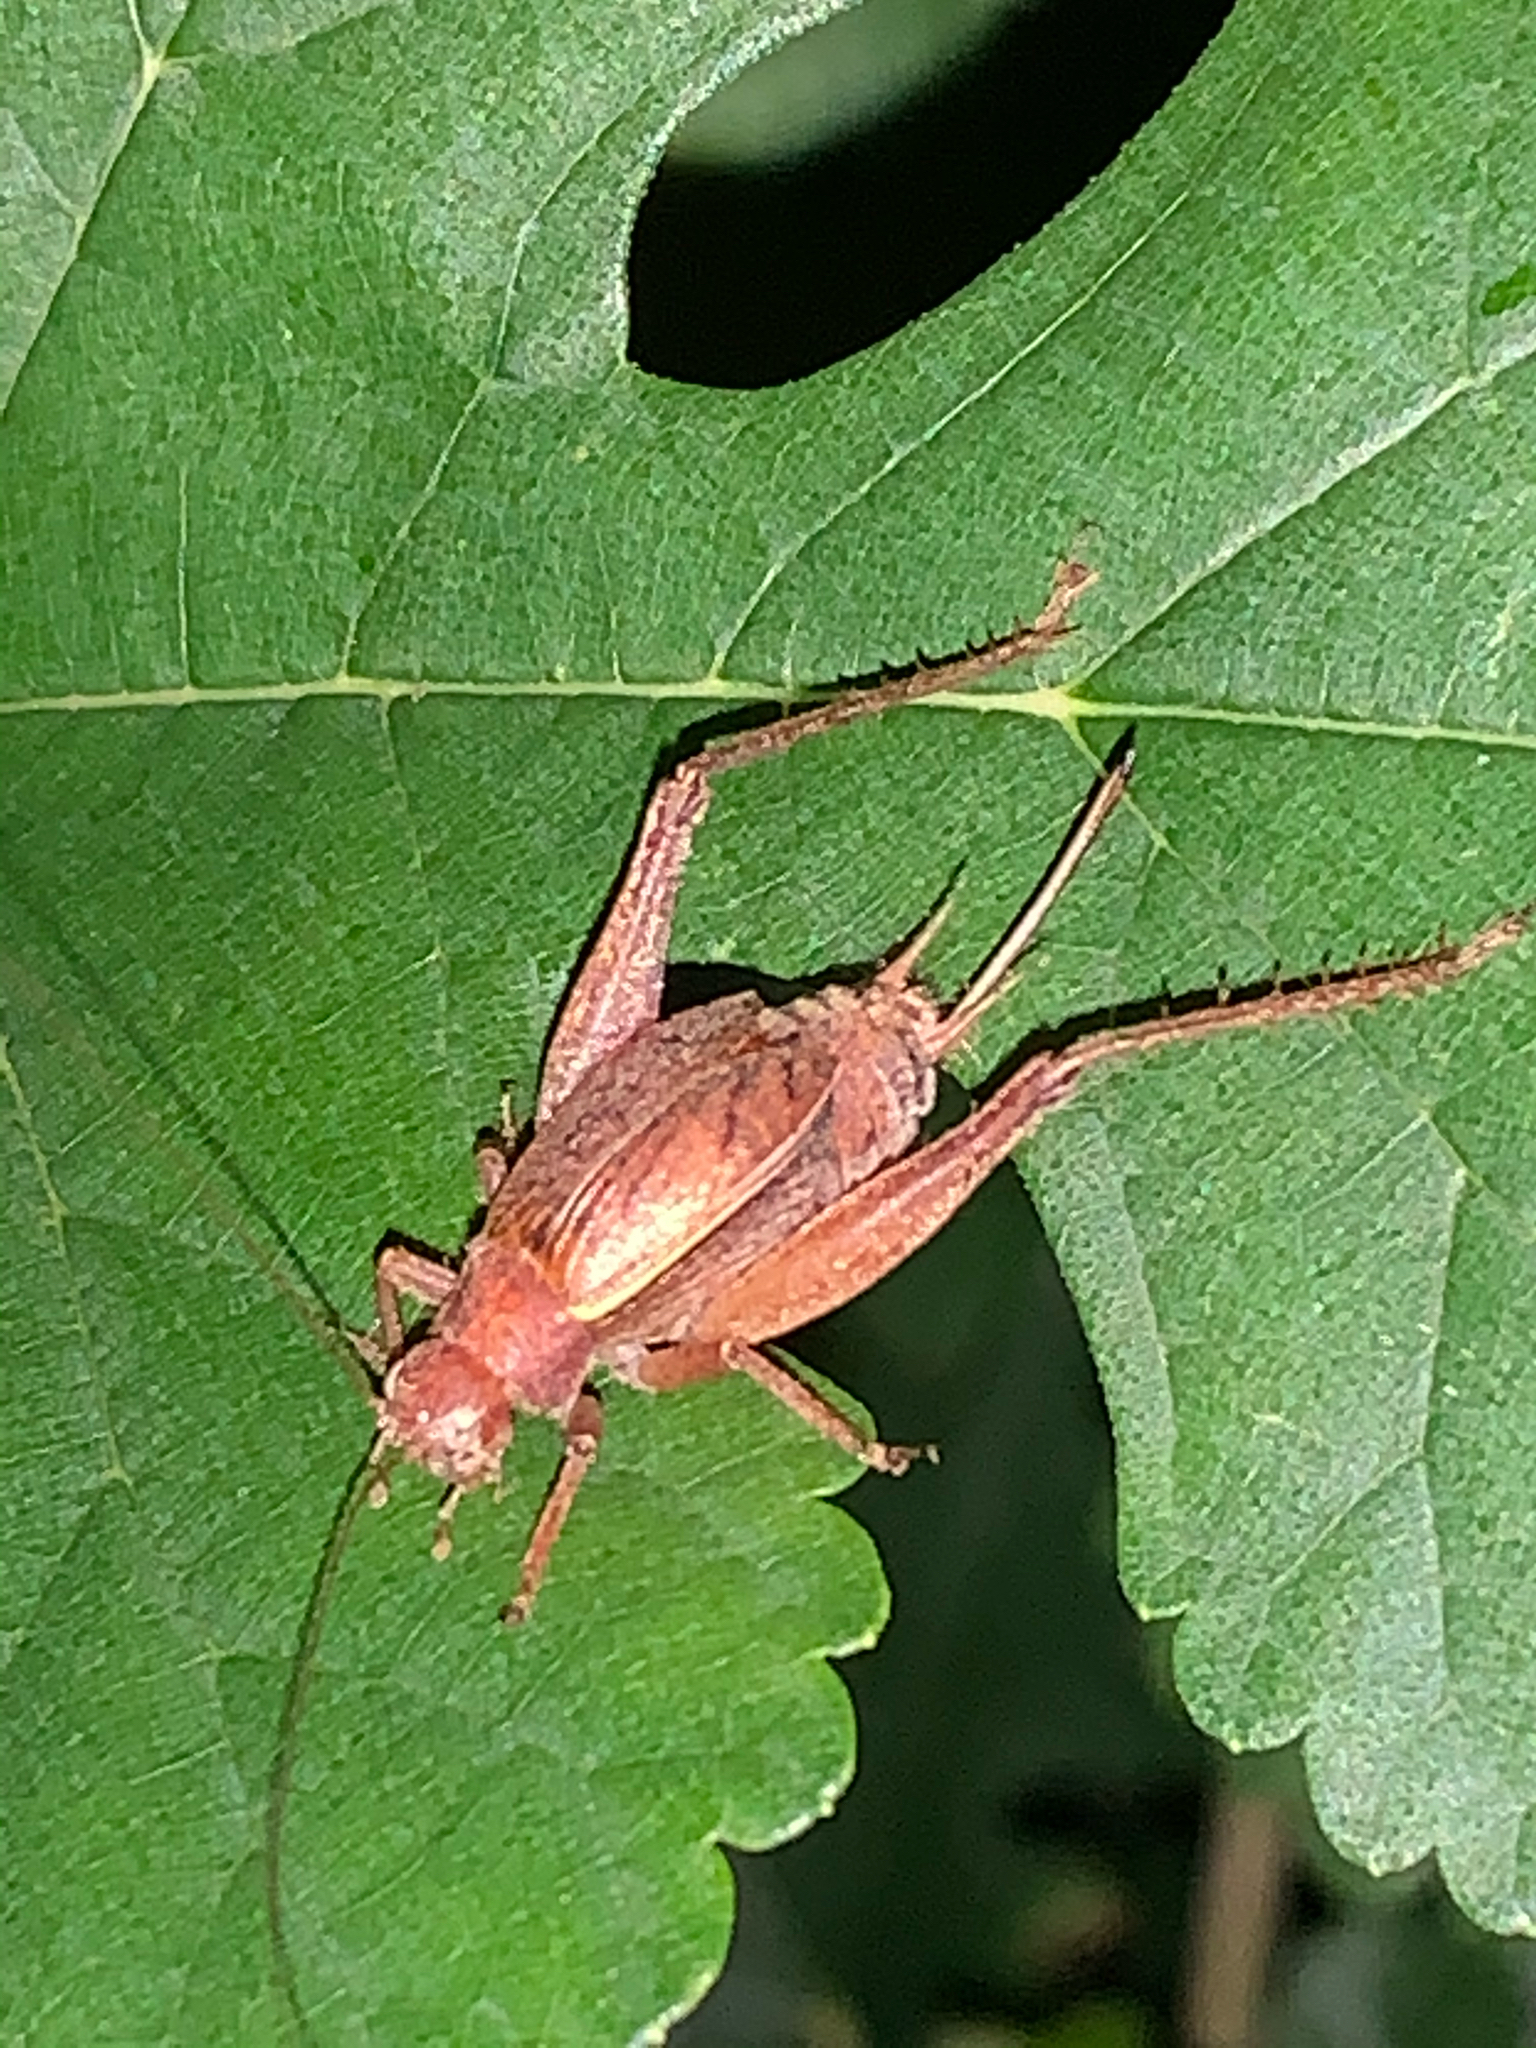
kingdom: Animalia
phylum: Arthropoda
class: Insecta
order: Orthoptera
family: Gryllidae
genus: Hapithus
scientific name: Hapithus agitator
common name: Restless bush cricket
